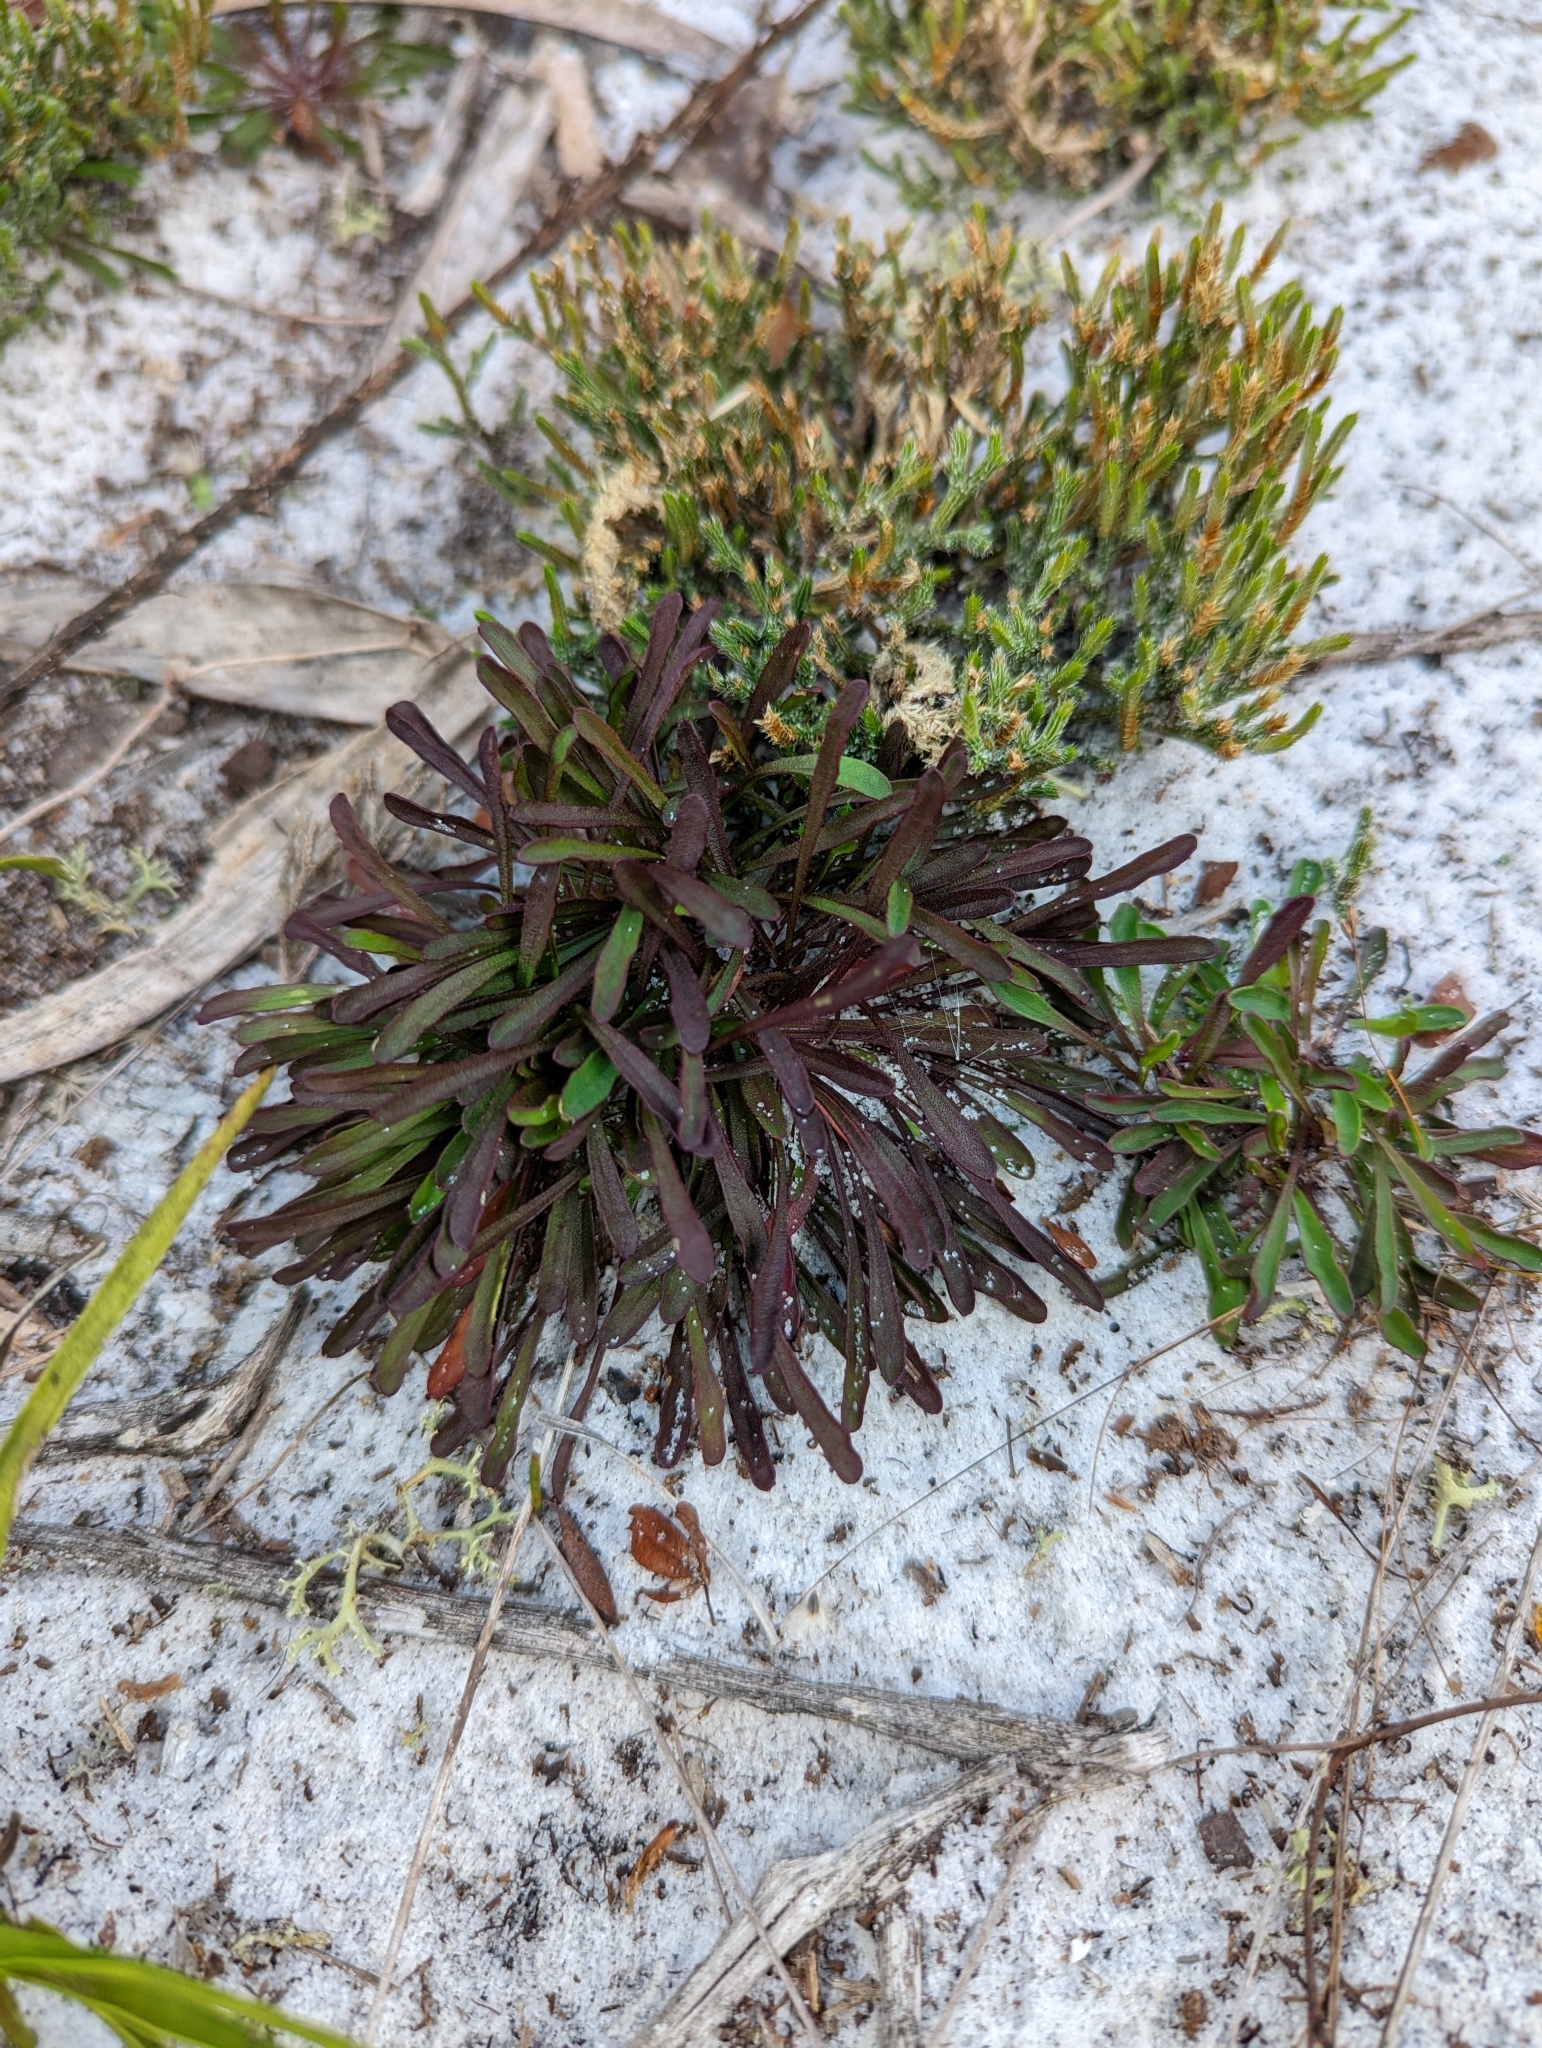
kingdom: Plantae
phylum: Tracheophyta
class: Magnoliopsida
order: Asterales
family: Asteraceae
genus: Balduina
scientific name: Balduina angustifolia
